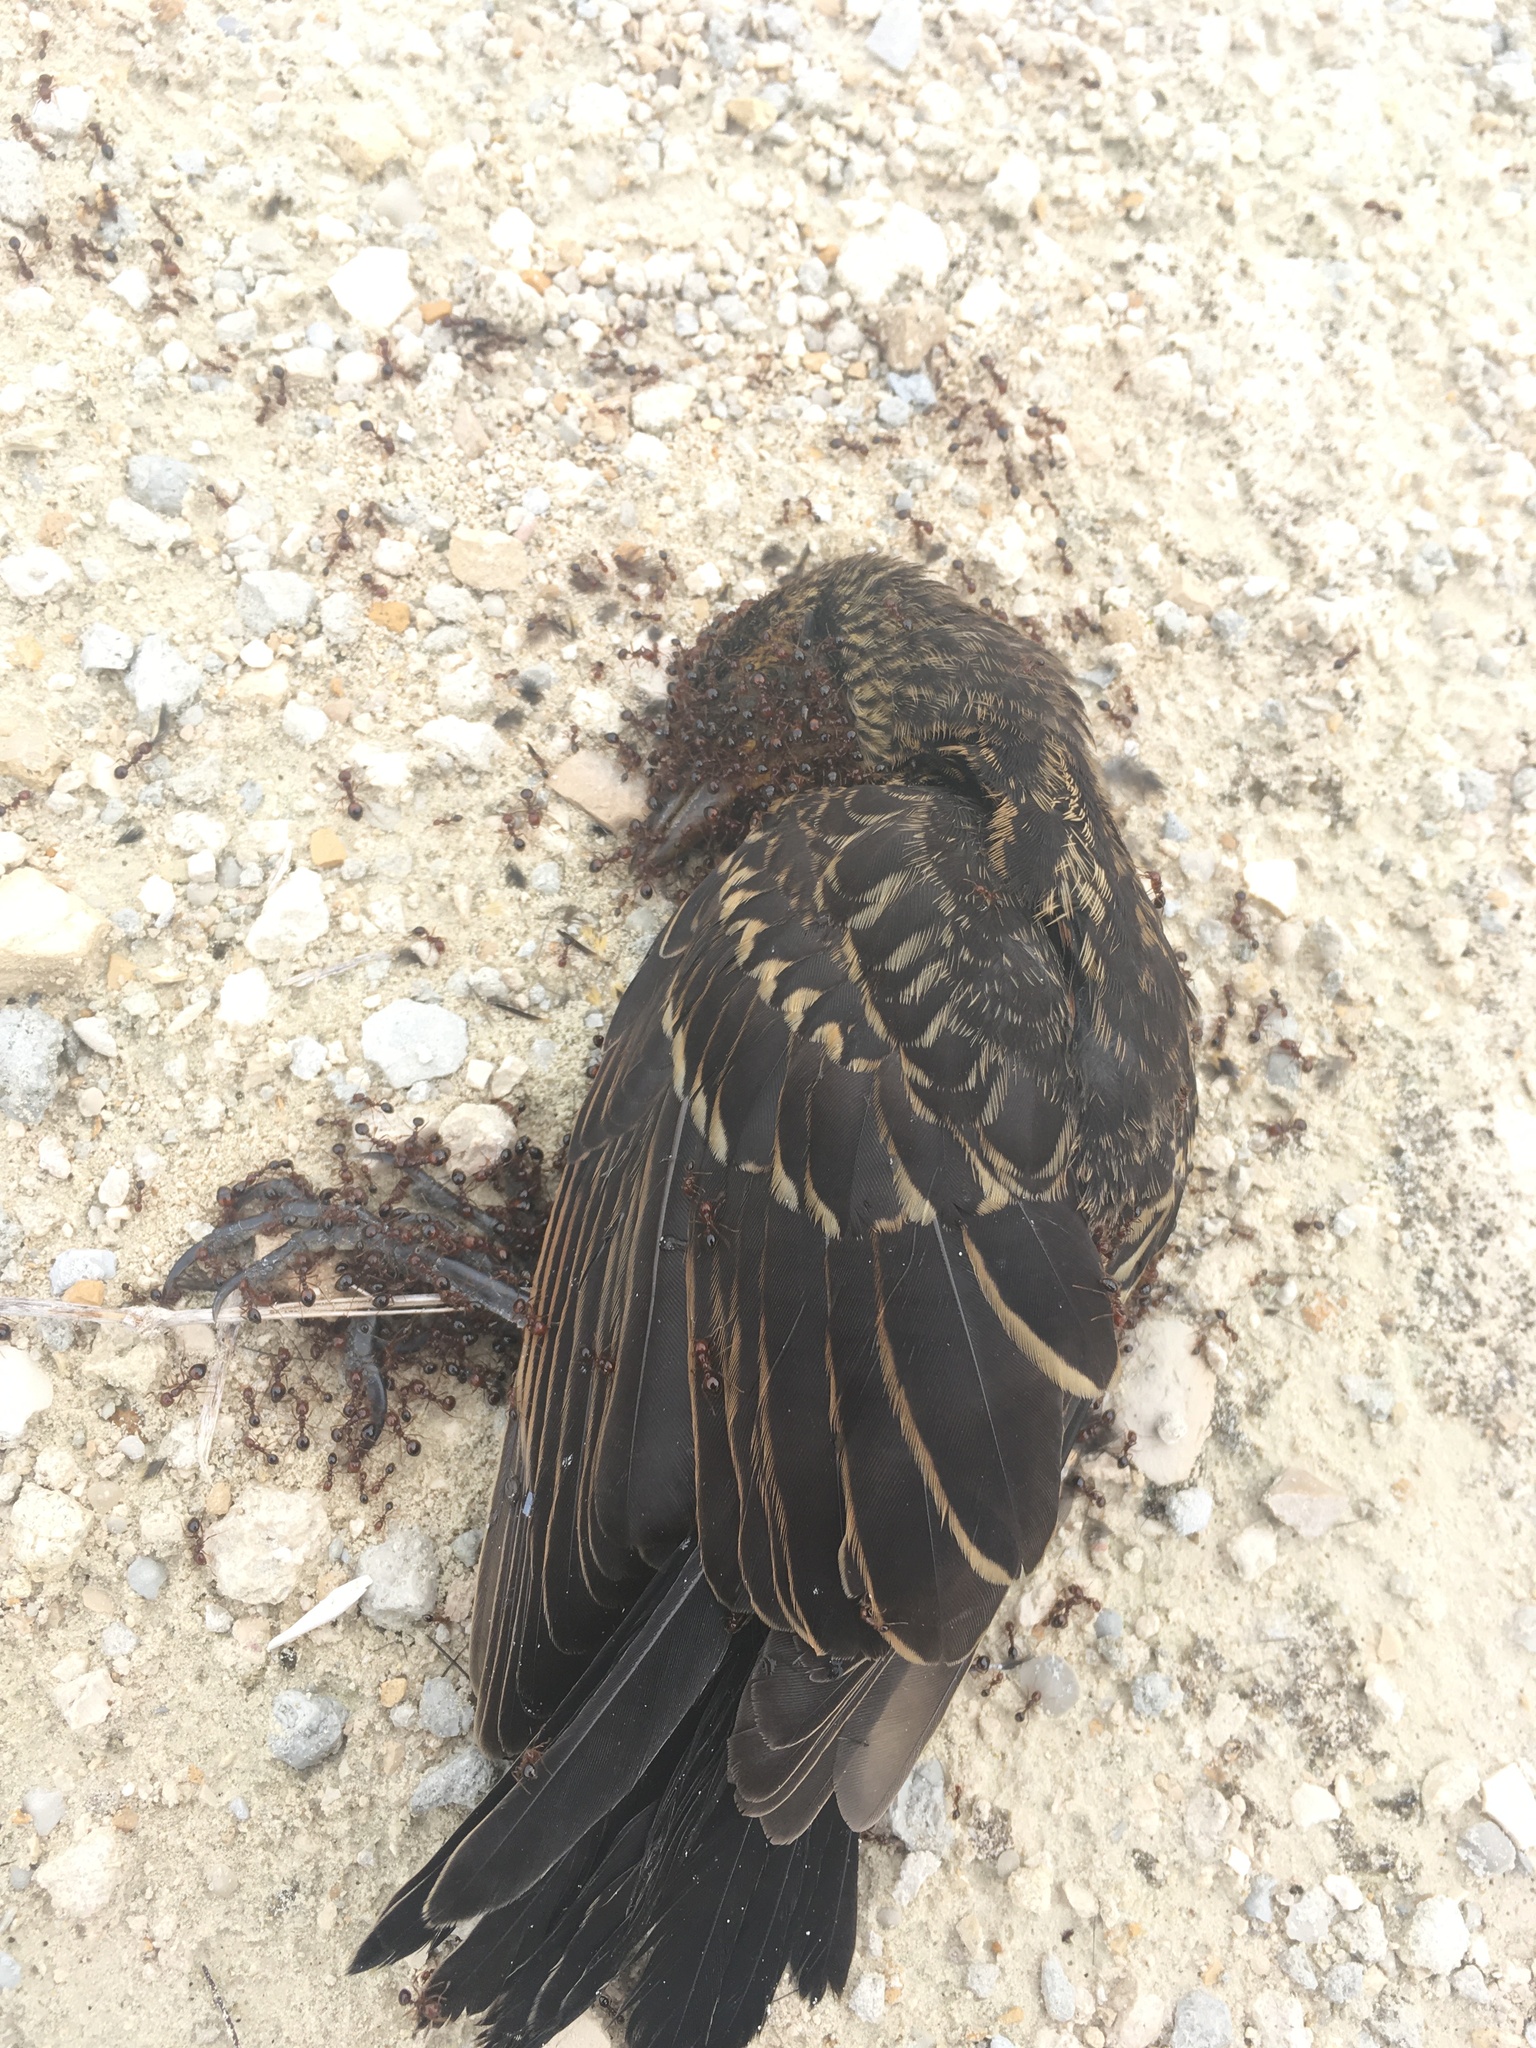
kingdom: Animalia
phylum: Chordata
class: Aves
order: Passeriformes
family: Icteridae
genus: Agelaius
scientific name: Agelaius phoeniceus
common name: Red-winged blackbird
